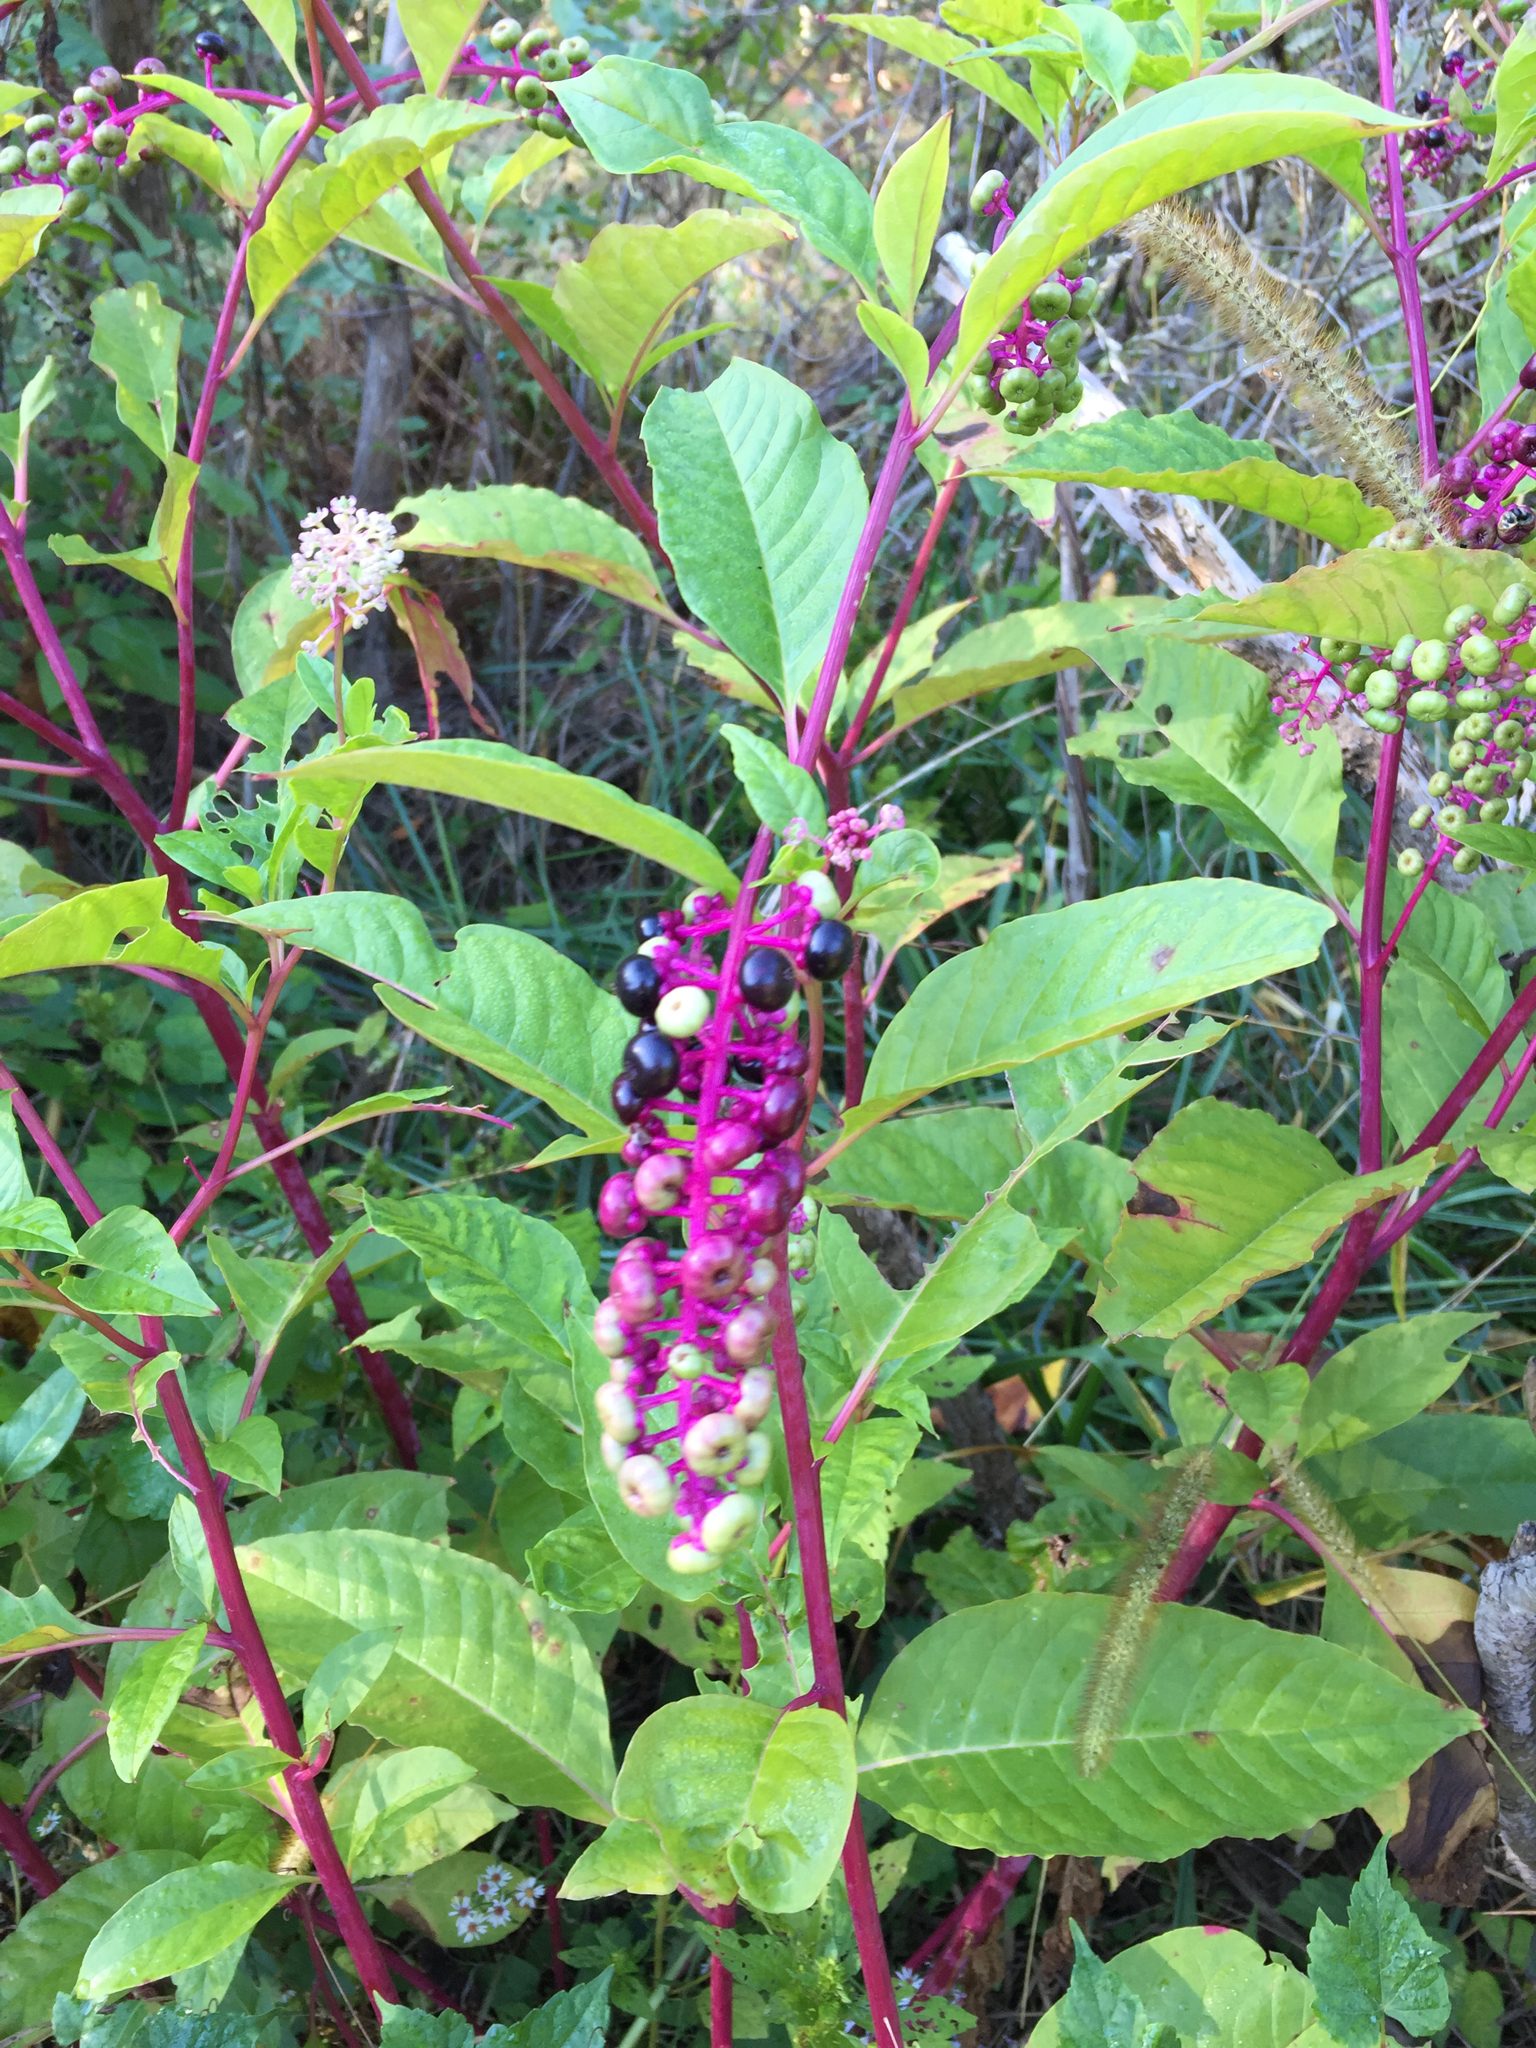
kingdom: Plantae
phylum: Tracheophyta
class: Magnoliopsida
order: Caryophyllales
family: Phytolaccaceae
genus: Phytolacca
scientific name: Phytolacca americana
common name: American pokeweed
